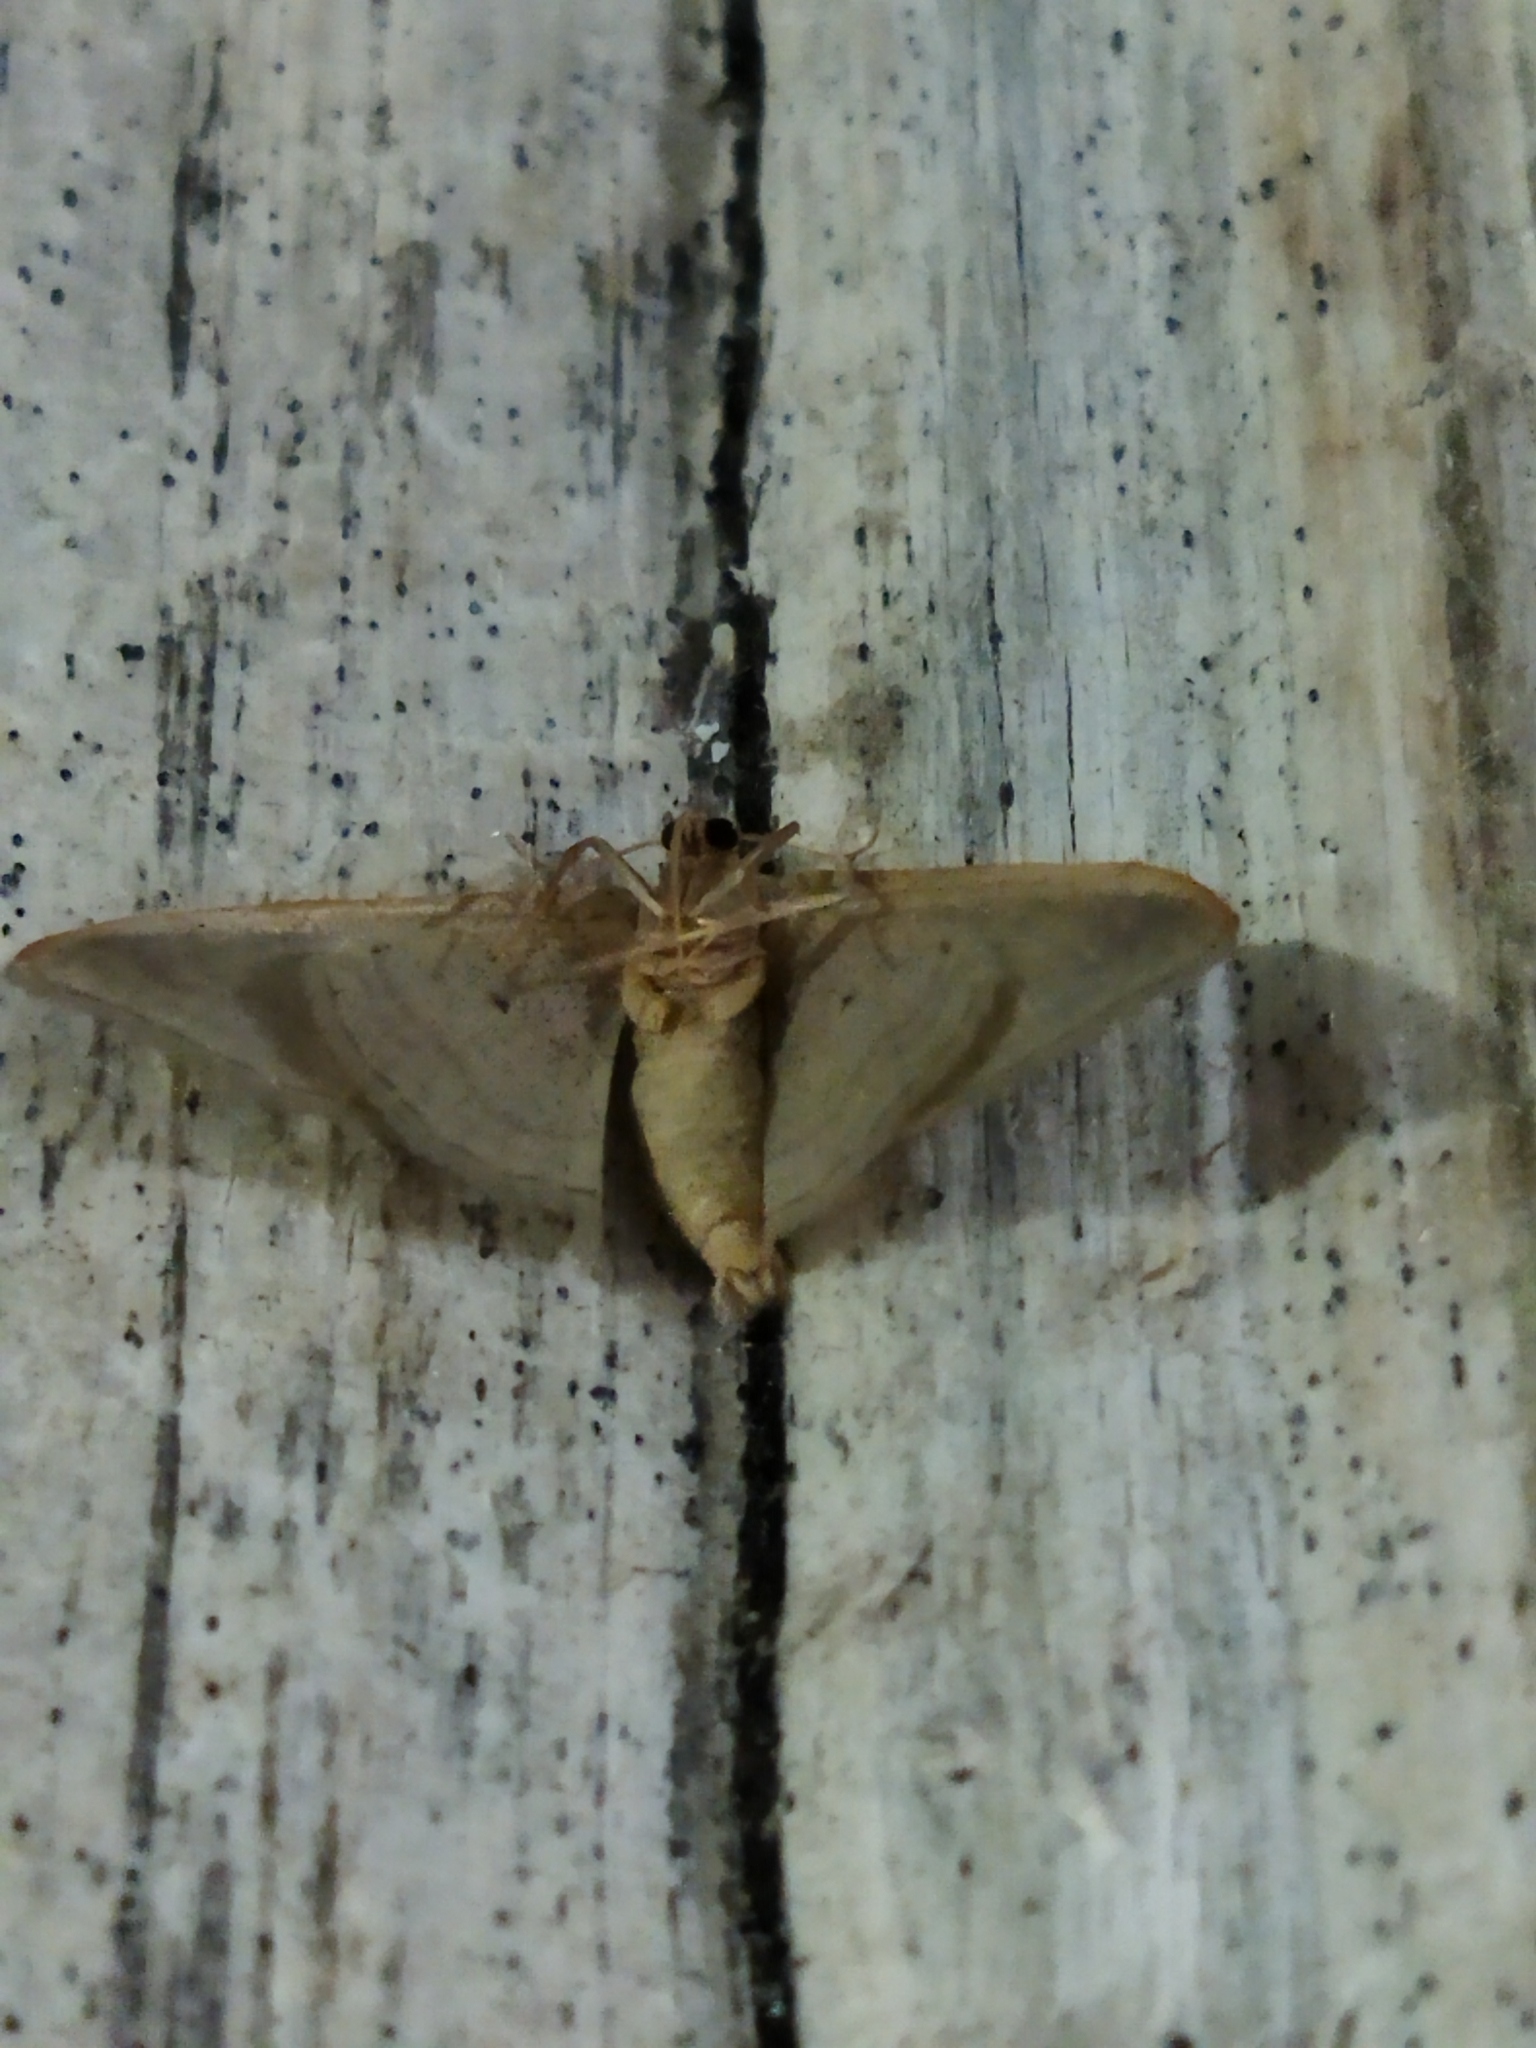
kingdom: Animalia
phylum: Arthropoda
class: Insecta
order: Lepidoptera
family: Geometridae
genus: Idaea
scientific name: Idaea degeneraria
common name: Portland ribbon wave
